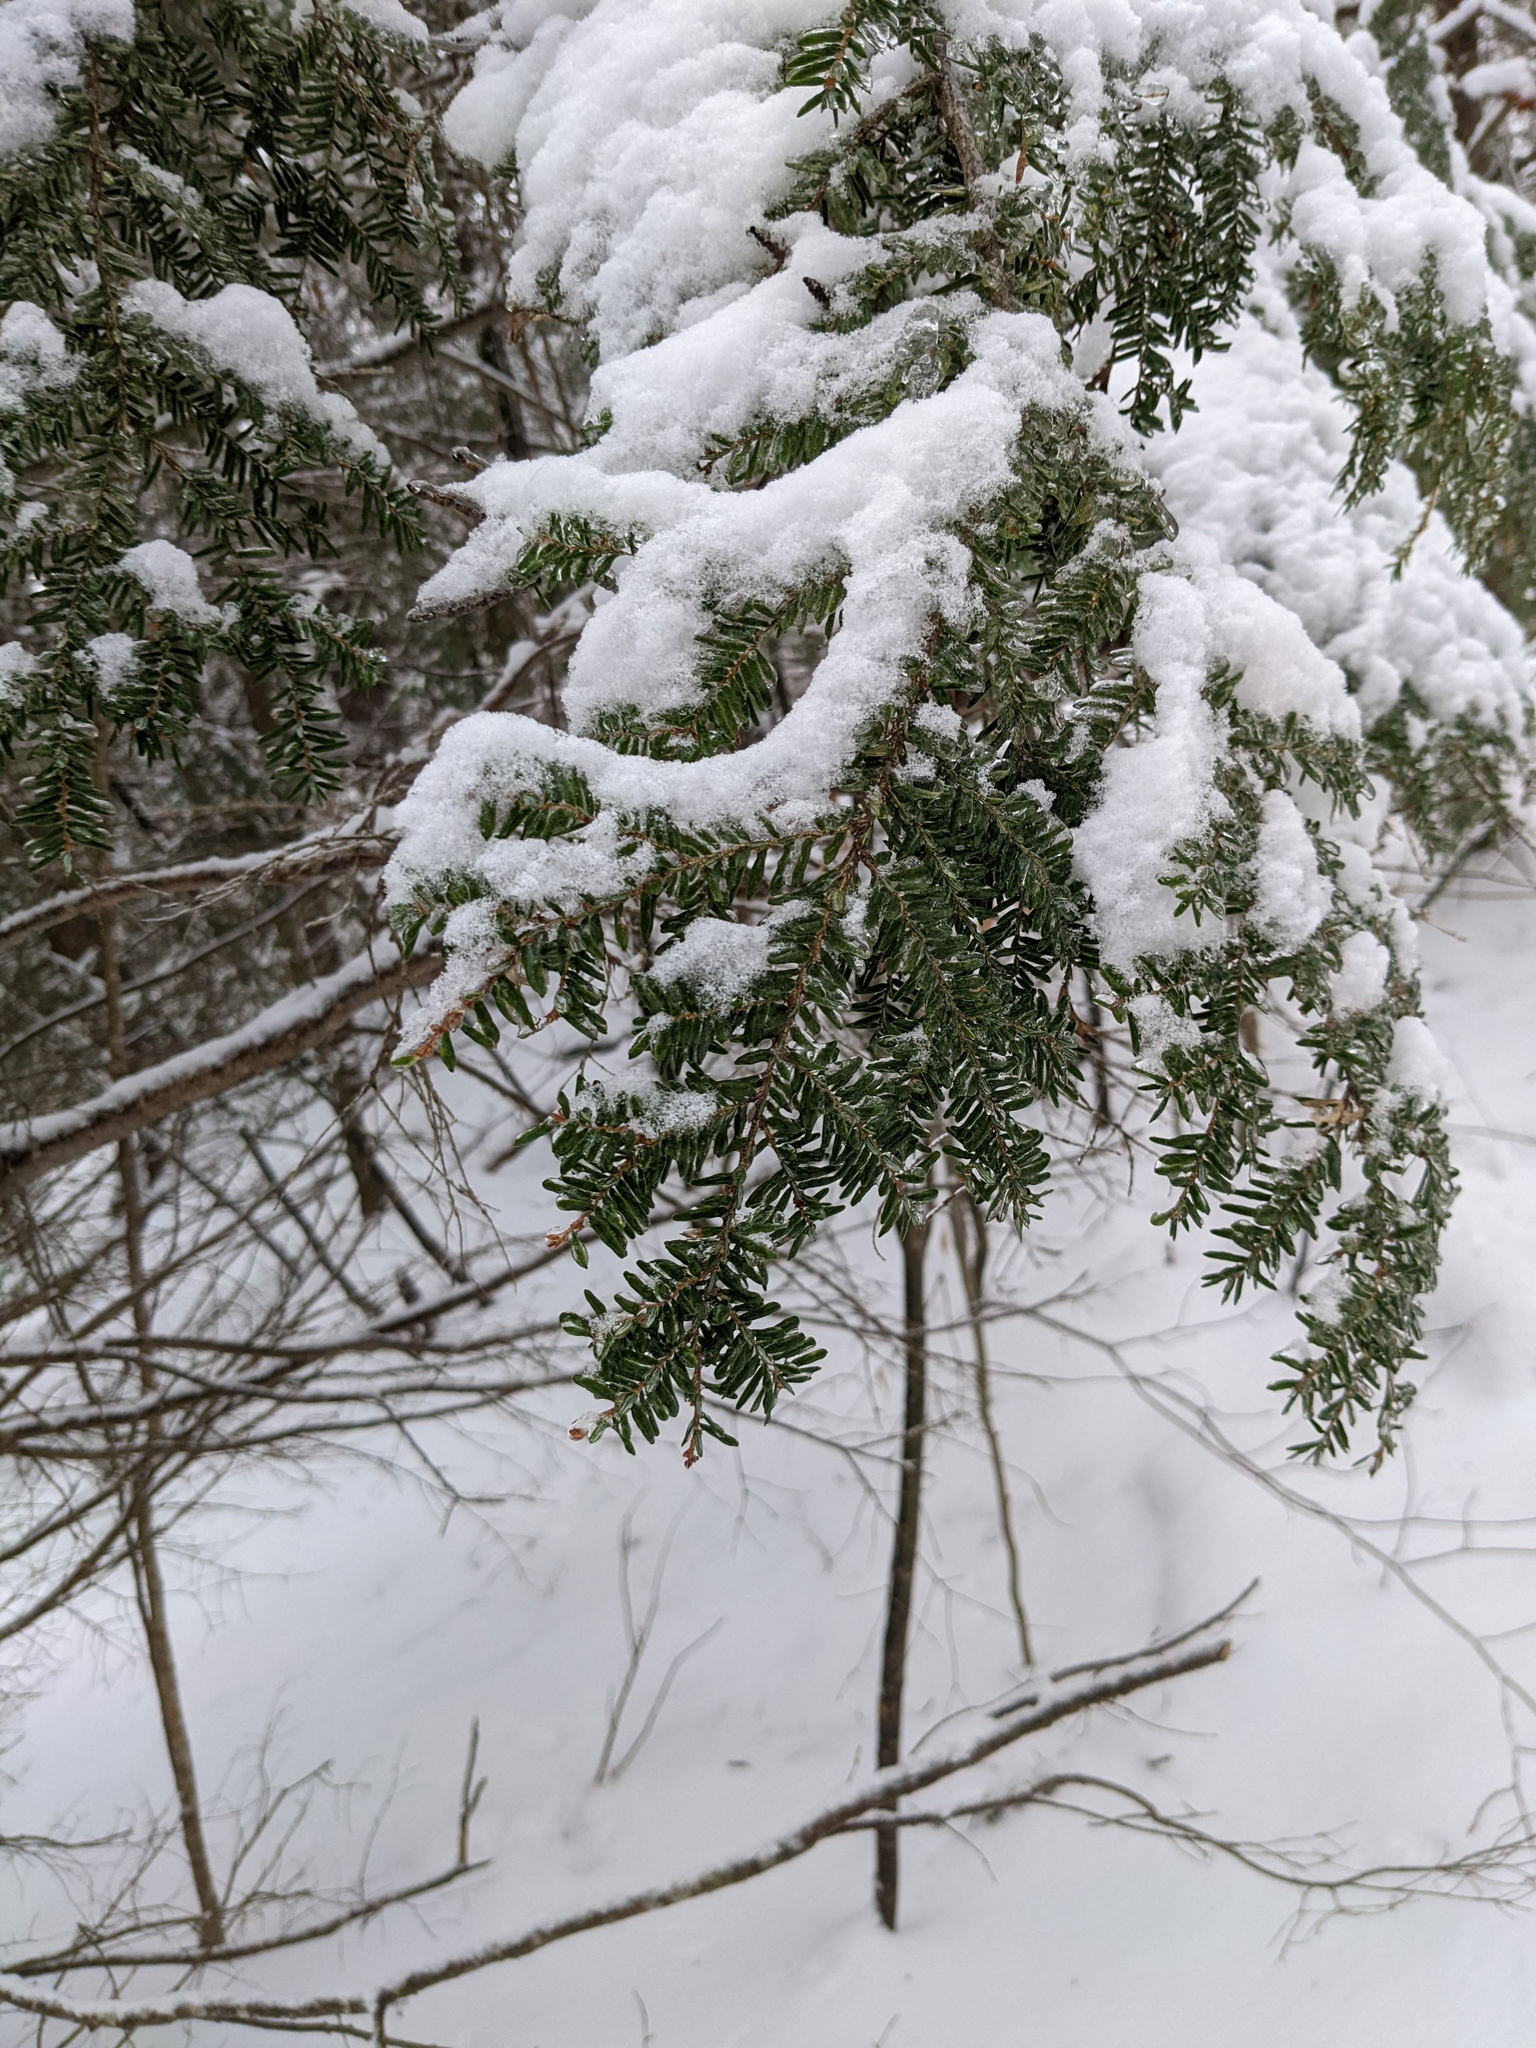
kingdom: Plantae
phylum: Tracheophyta
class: Pinopsida
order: Pinales
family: Pinaceae
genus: Tsuga
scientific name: Tsuga canadensis
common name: Eastern hemlock
